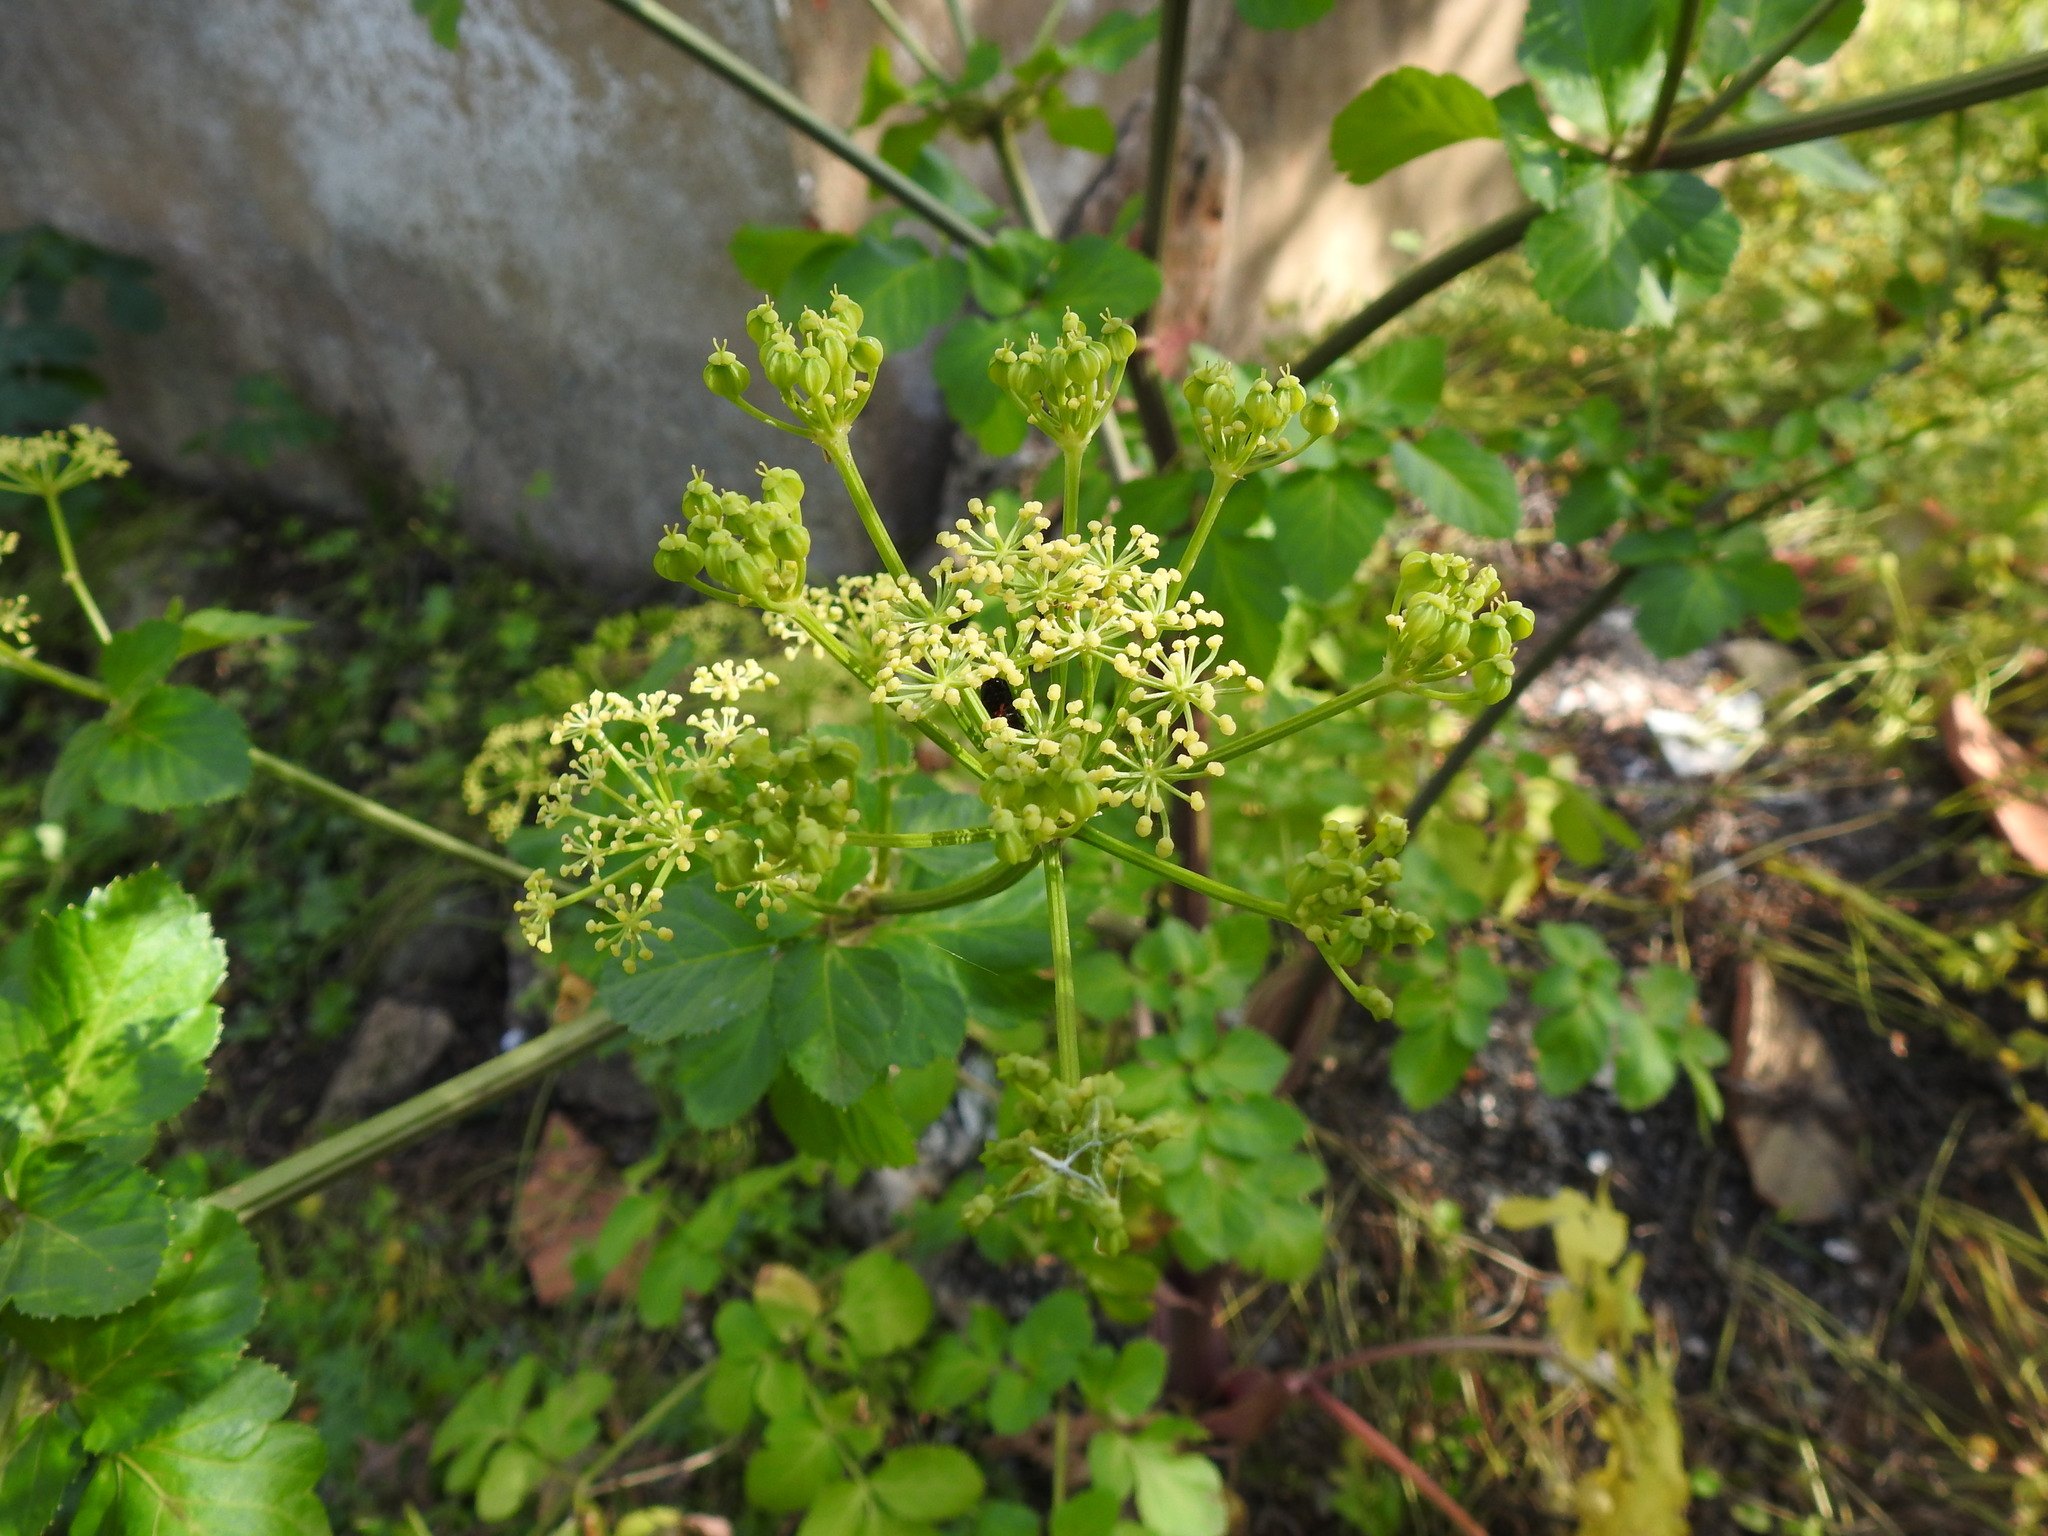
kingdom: Plantae
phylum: Tracheophyta
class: Magnoliopsida
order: Apiales
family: Apiaceae
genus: Smyrnium
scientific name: Smyrnium olusatrum
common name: Alexanders
